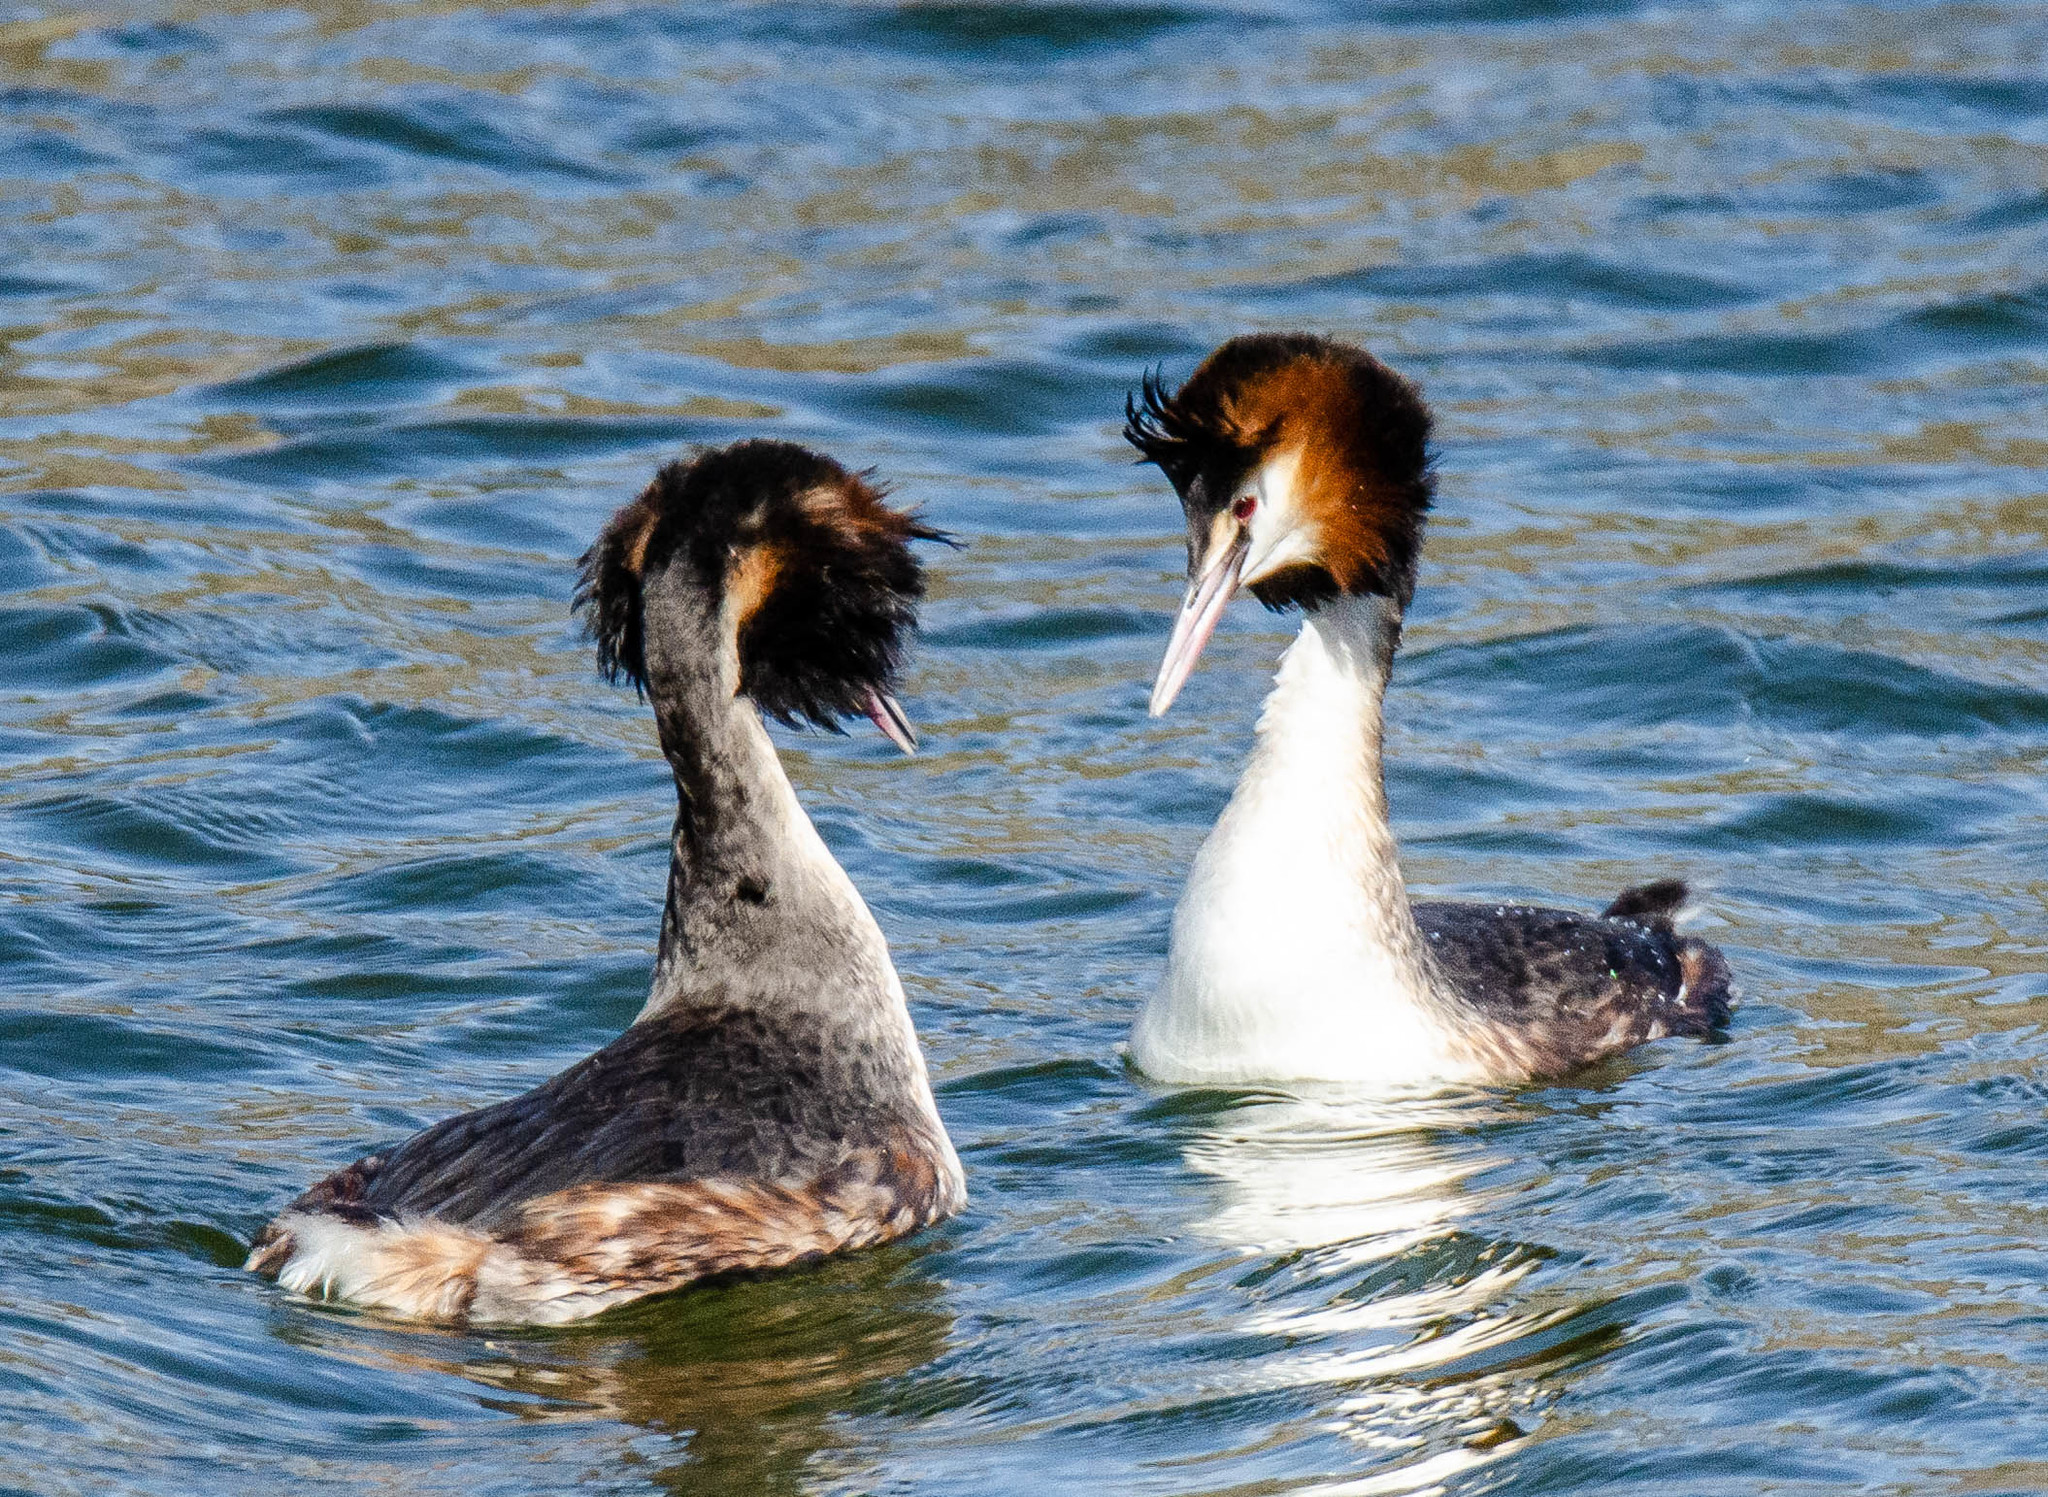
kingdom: Animalia
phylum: Chordata
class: Aves
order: Podicipediformes
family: Podicipedidae
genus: Podiceps
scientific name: Podiceps cristatus
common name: Great crested grebe
